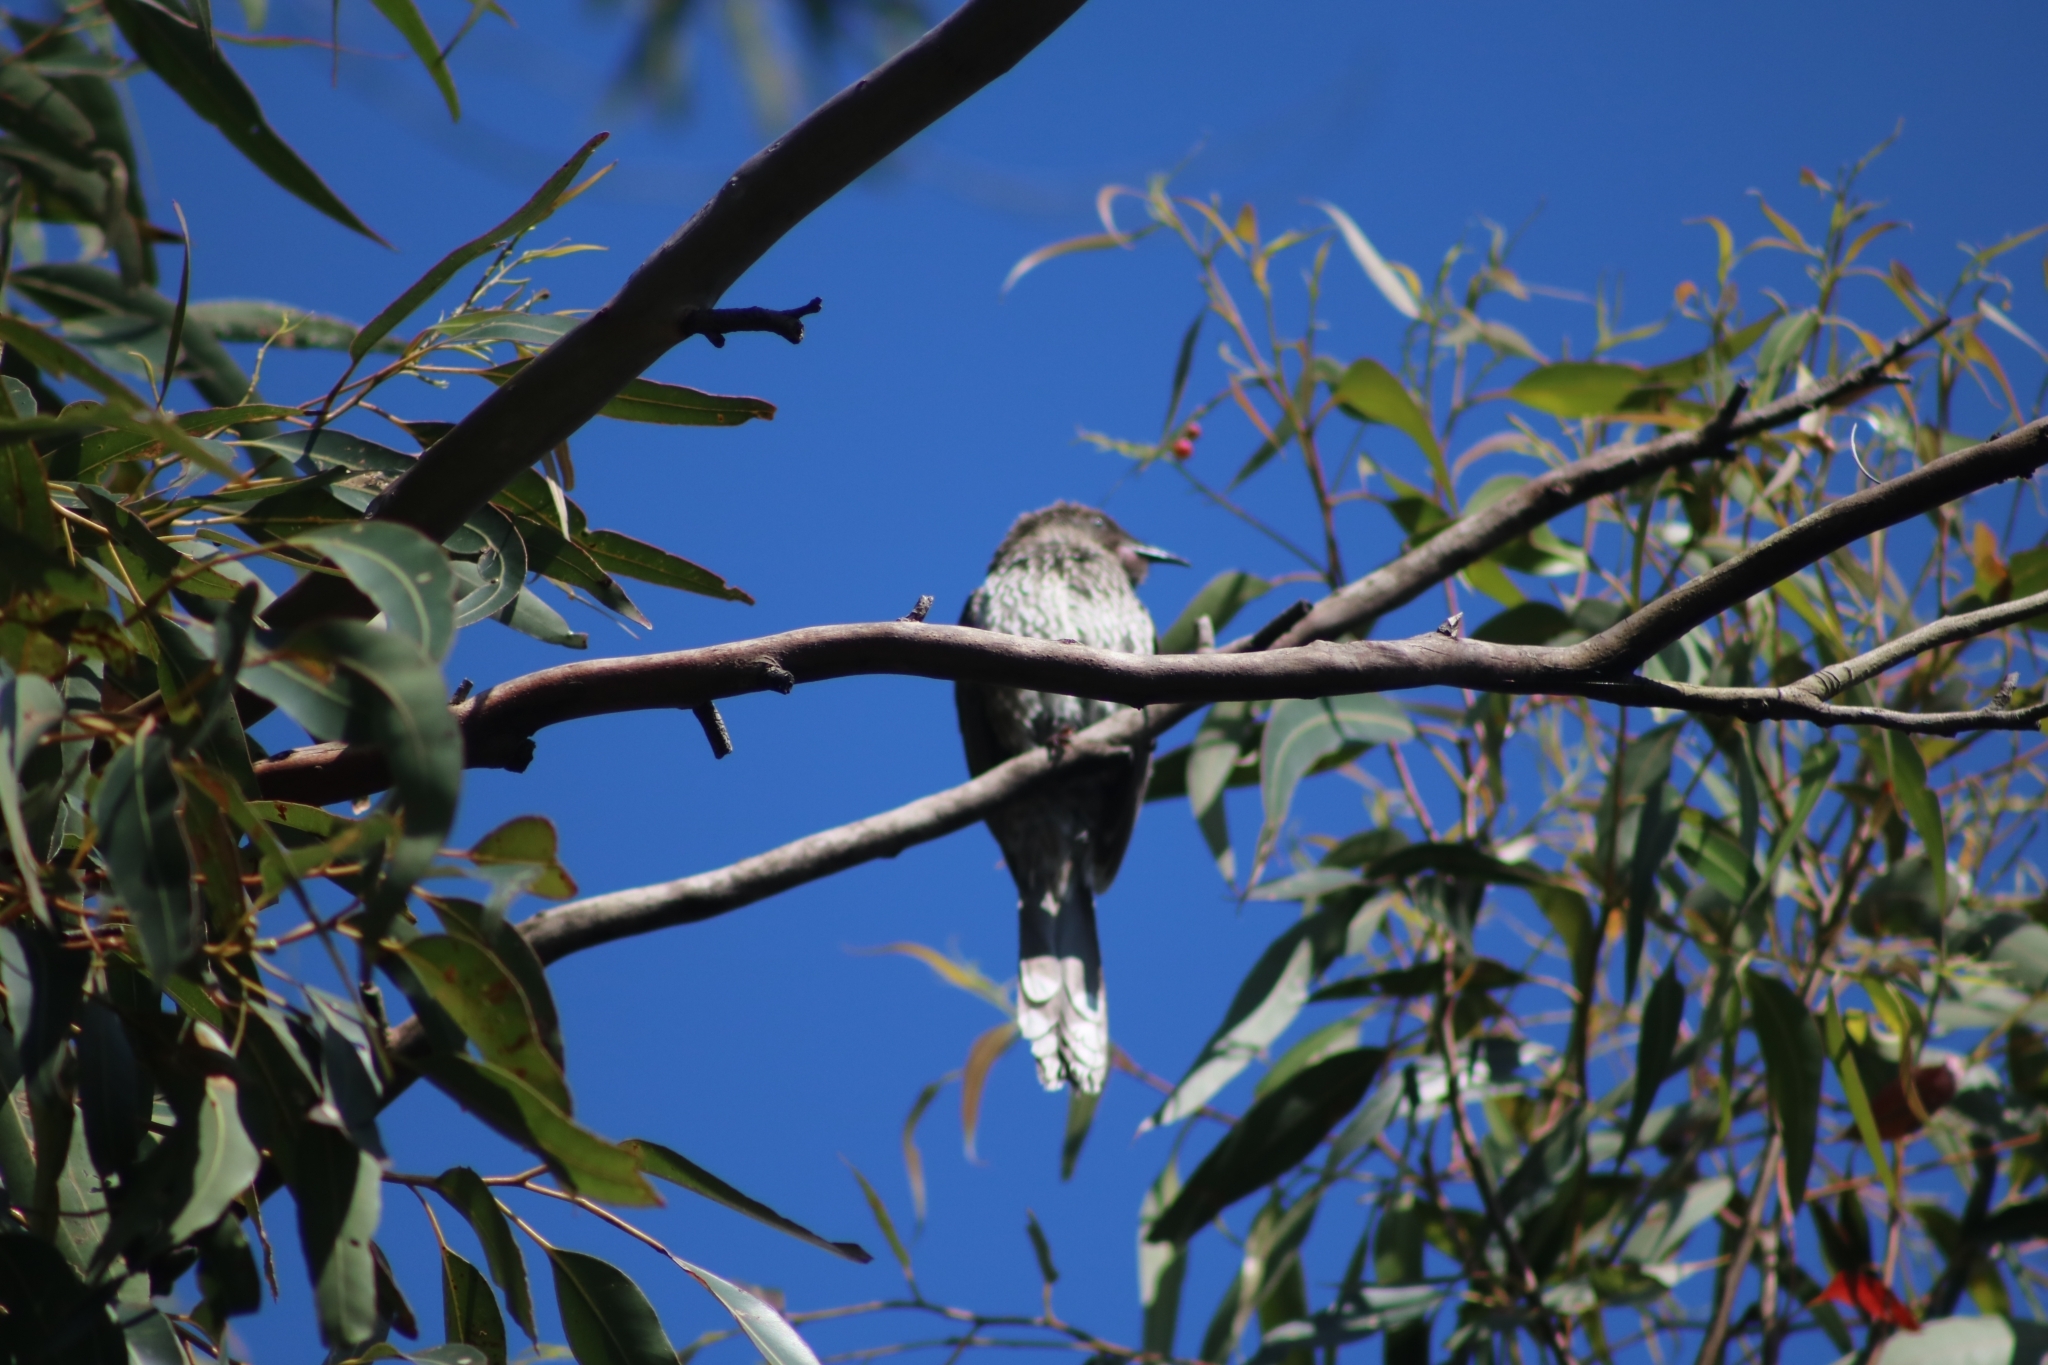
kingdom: Animalia
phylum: Chordata
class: Aves
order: Passeriformes
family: Meliphagidae
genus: Anthochaera
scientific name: Anthochaera chrysoptera
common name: Little wattlebird
